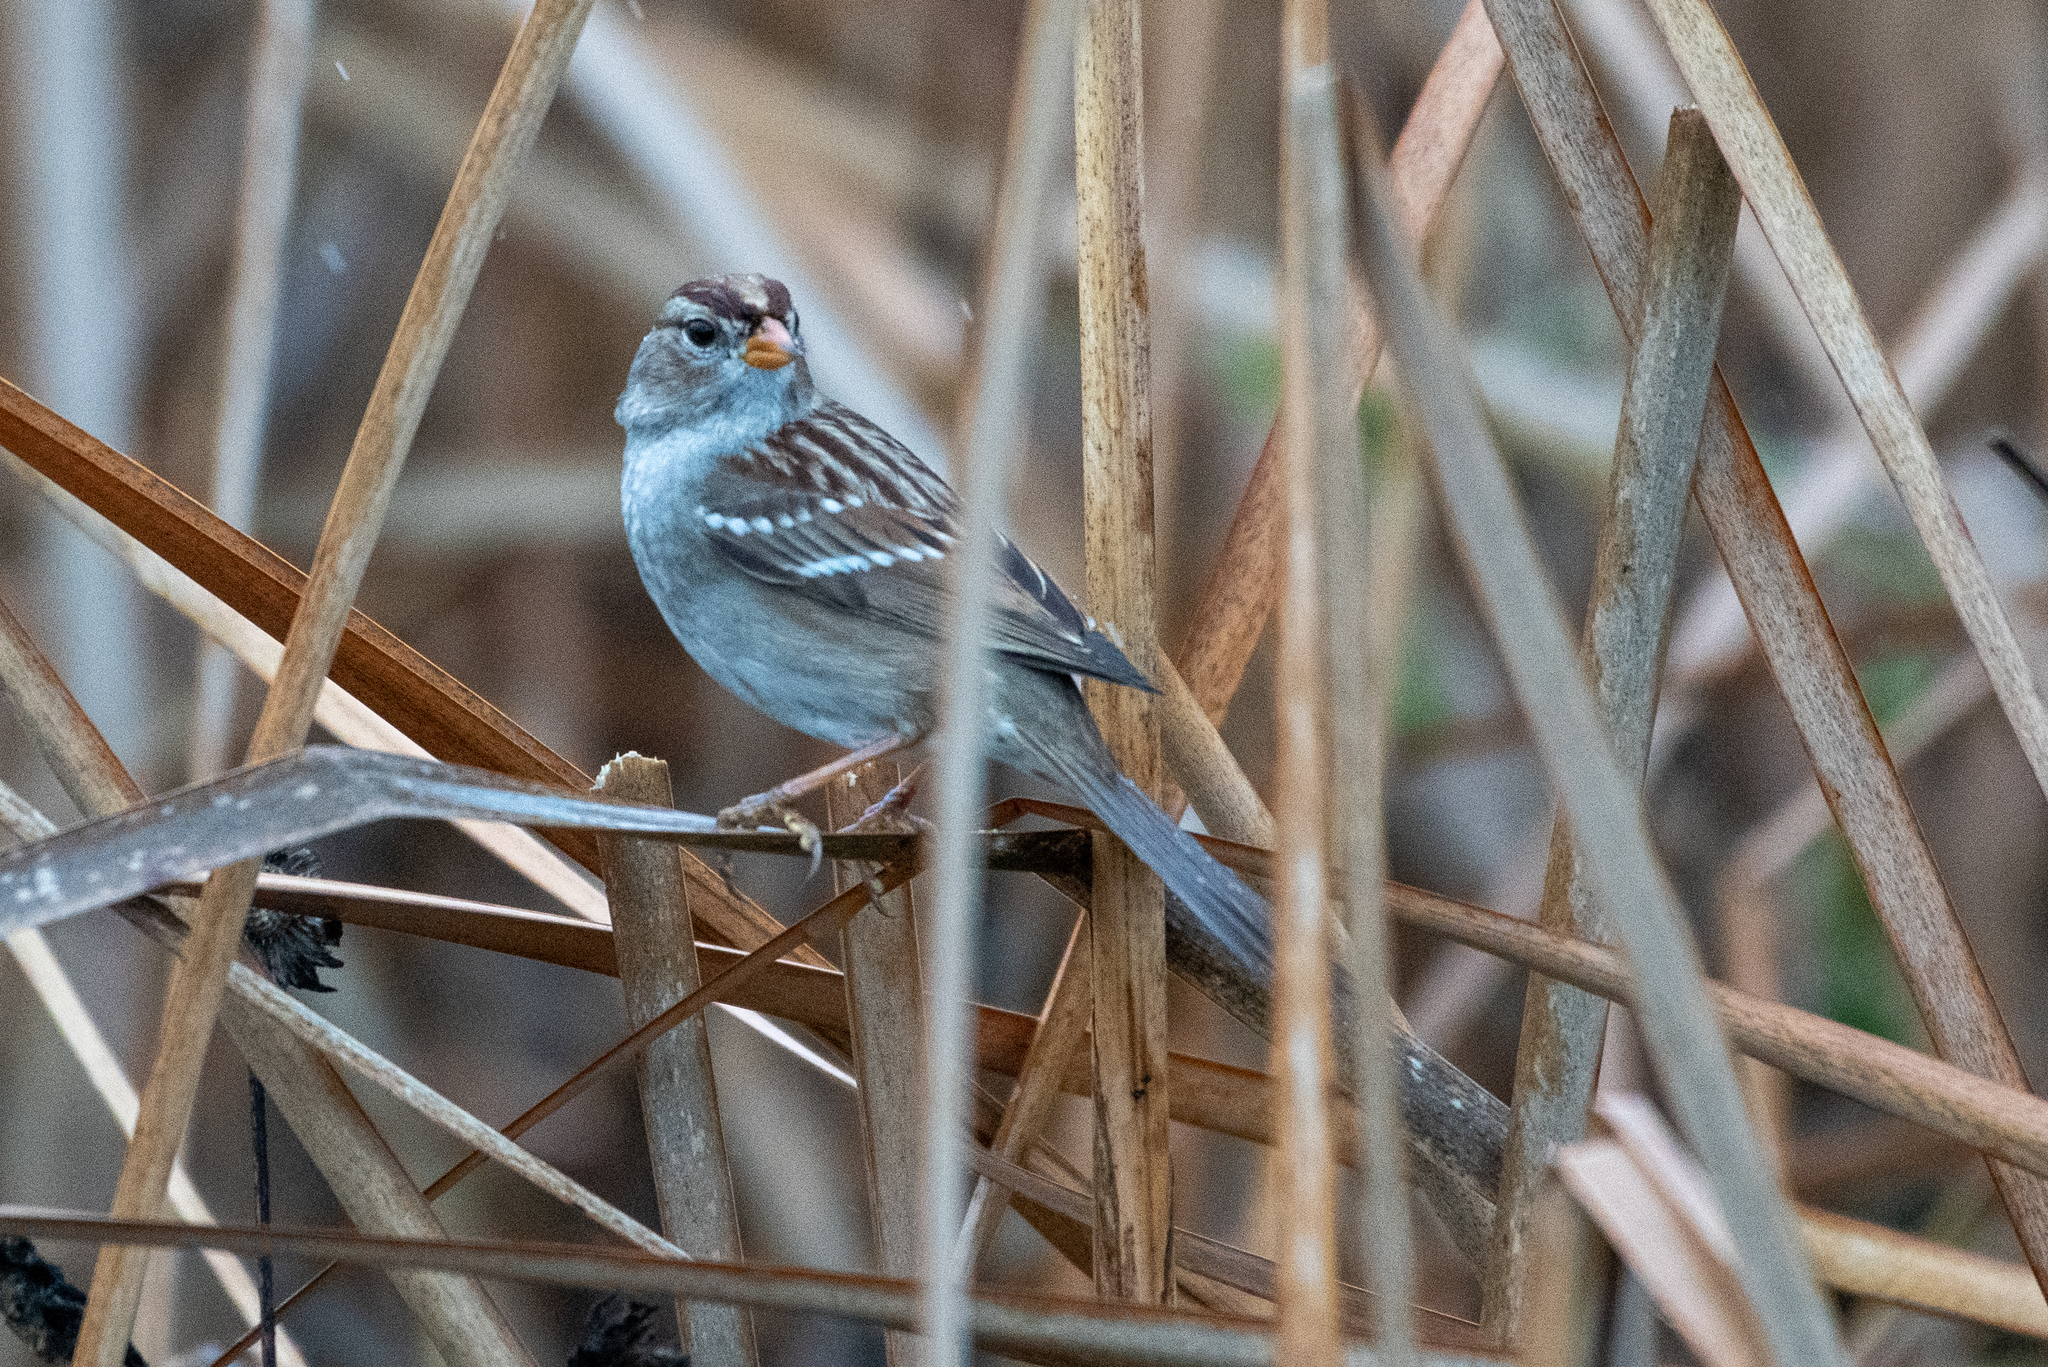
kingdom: Animalia
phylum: Chordata
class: Aves
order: Passeriformes
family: Passerellidae
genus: Zonotrichia
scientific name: Zonotrichia leucophrys
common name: White-crowned sparrow
